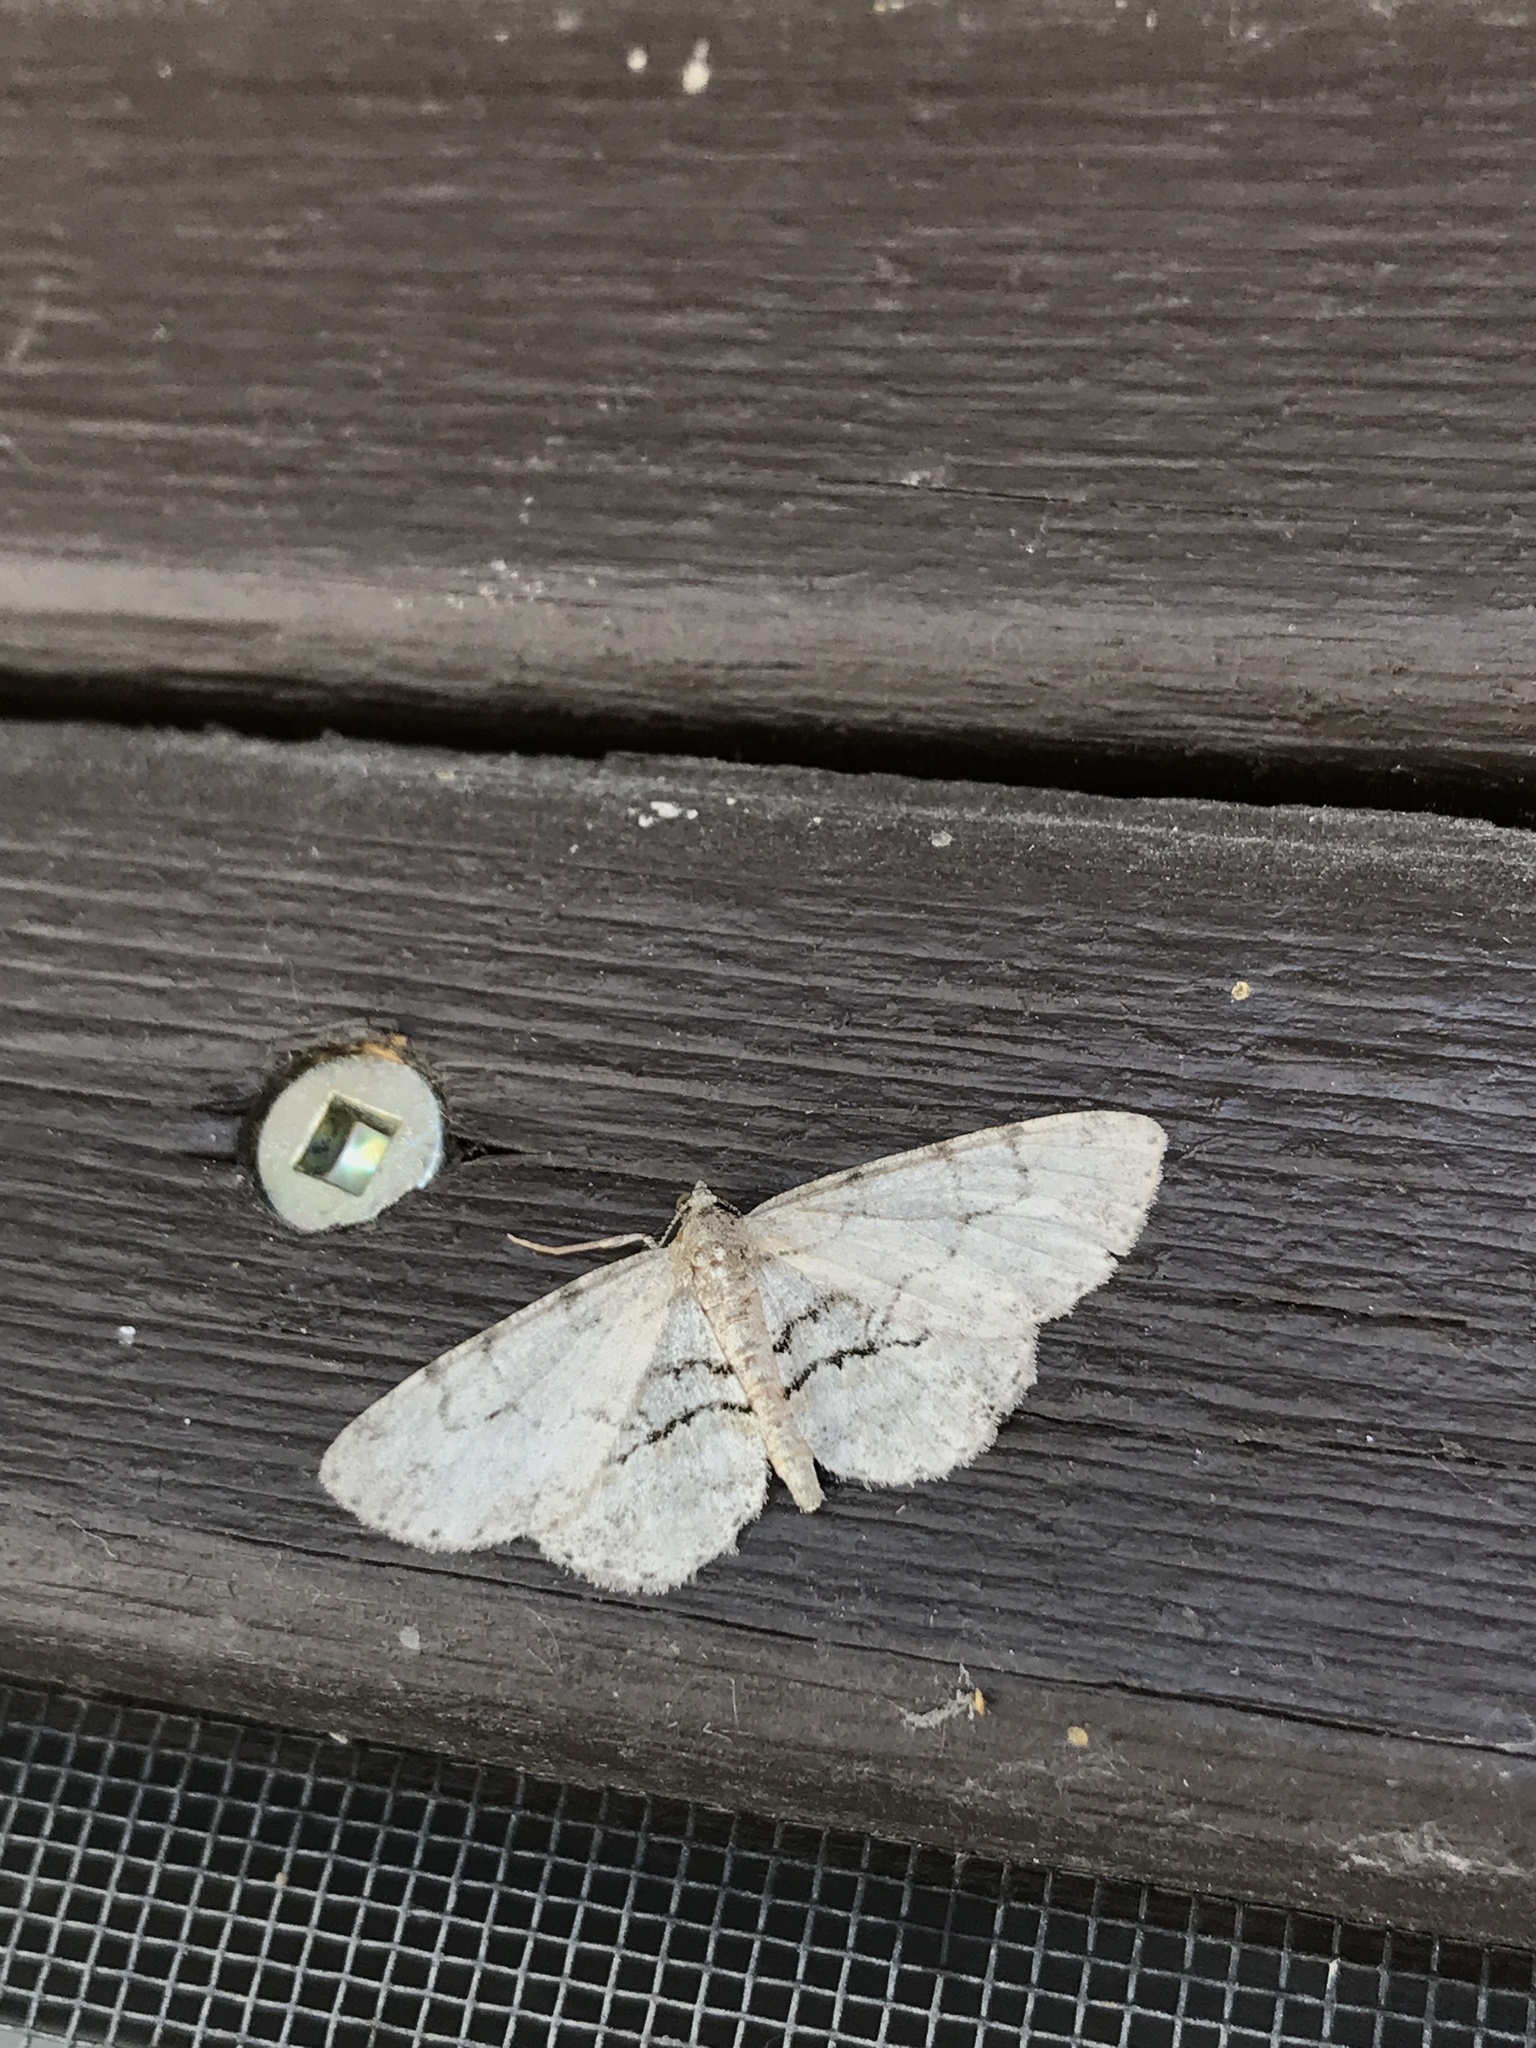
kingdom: Animalia
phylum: Arthropoda
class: Insecta
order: Lepidoptera
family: Geometridae
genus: Iridopsis
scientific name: Iridopsis ephyraria
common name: Pale-winged gray
